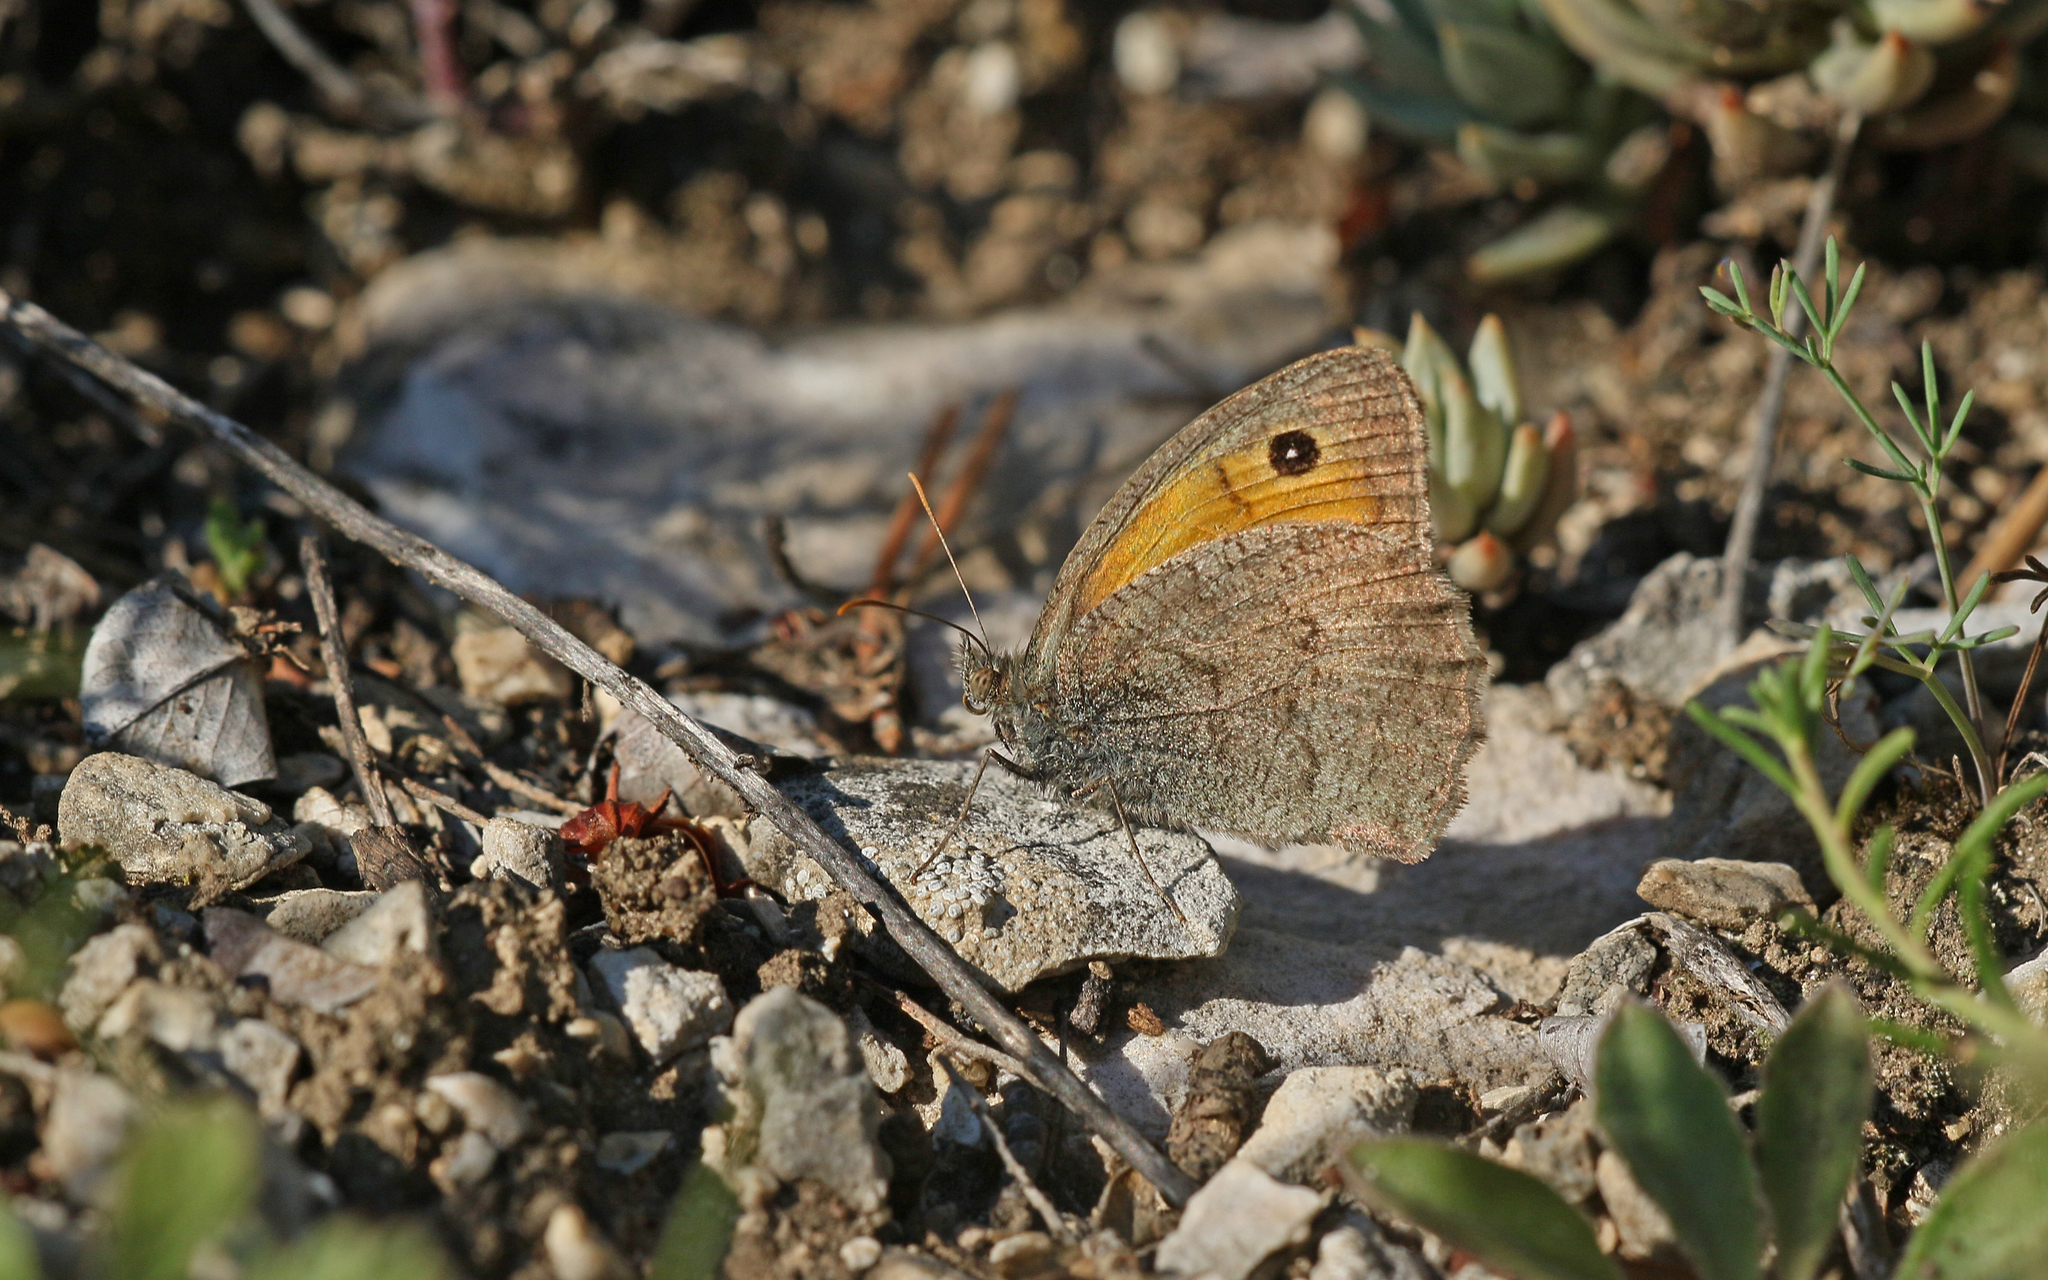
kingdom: Animalia
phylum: Arthropoda
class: Insecta
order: Lepidoptera
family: Nymphalidae
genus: Hyponephele
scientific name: Hyponephele lycaon
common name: Dusky meadow brown
